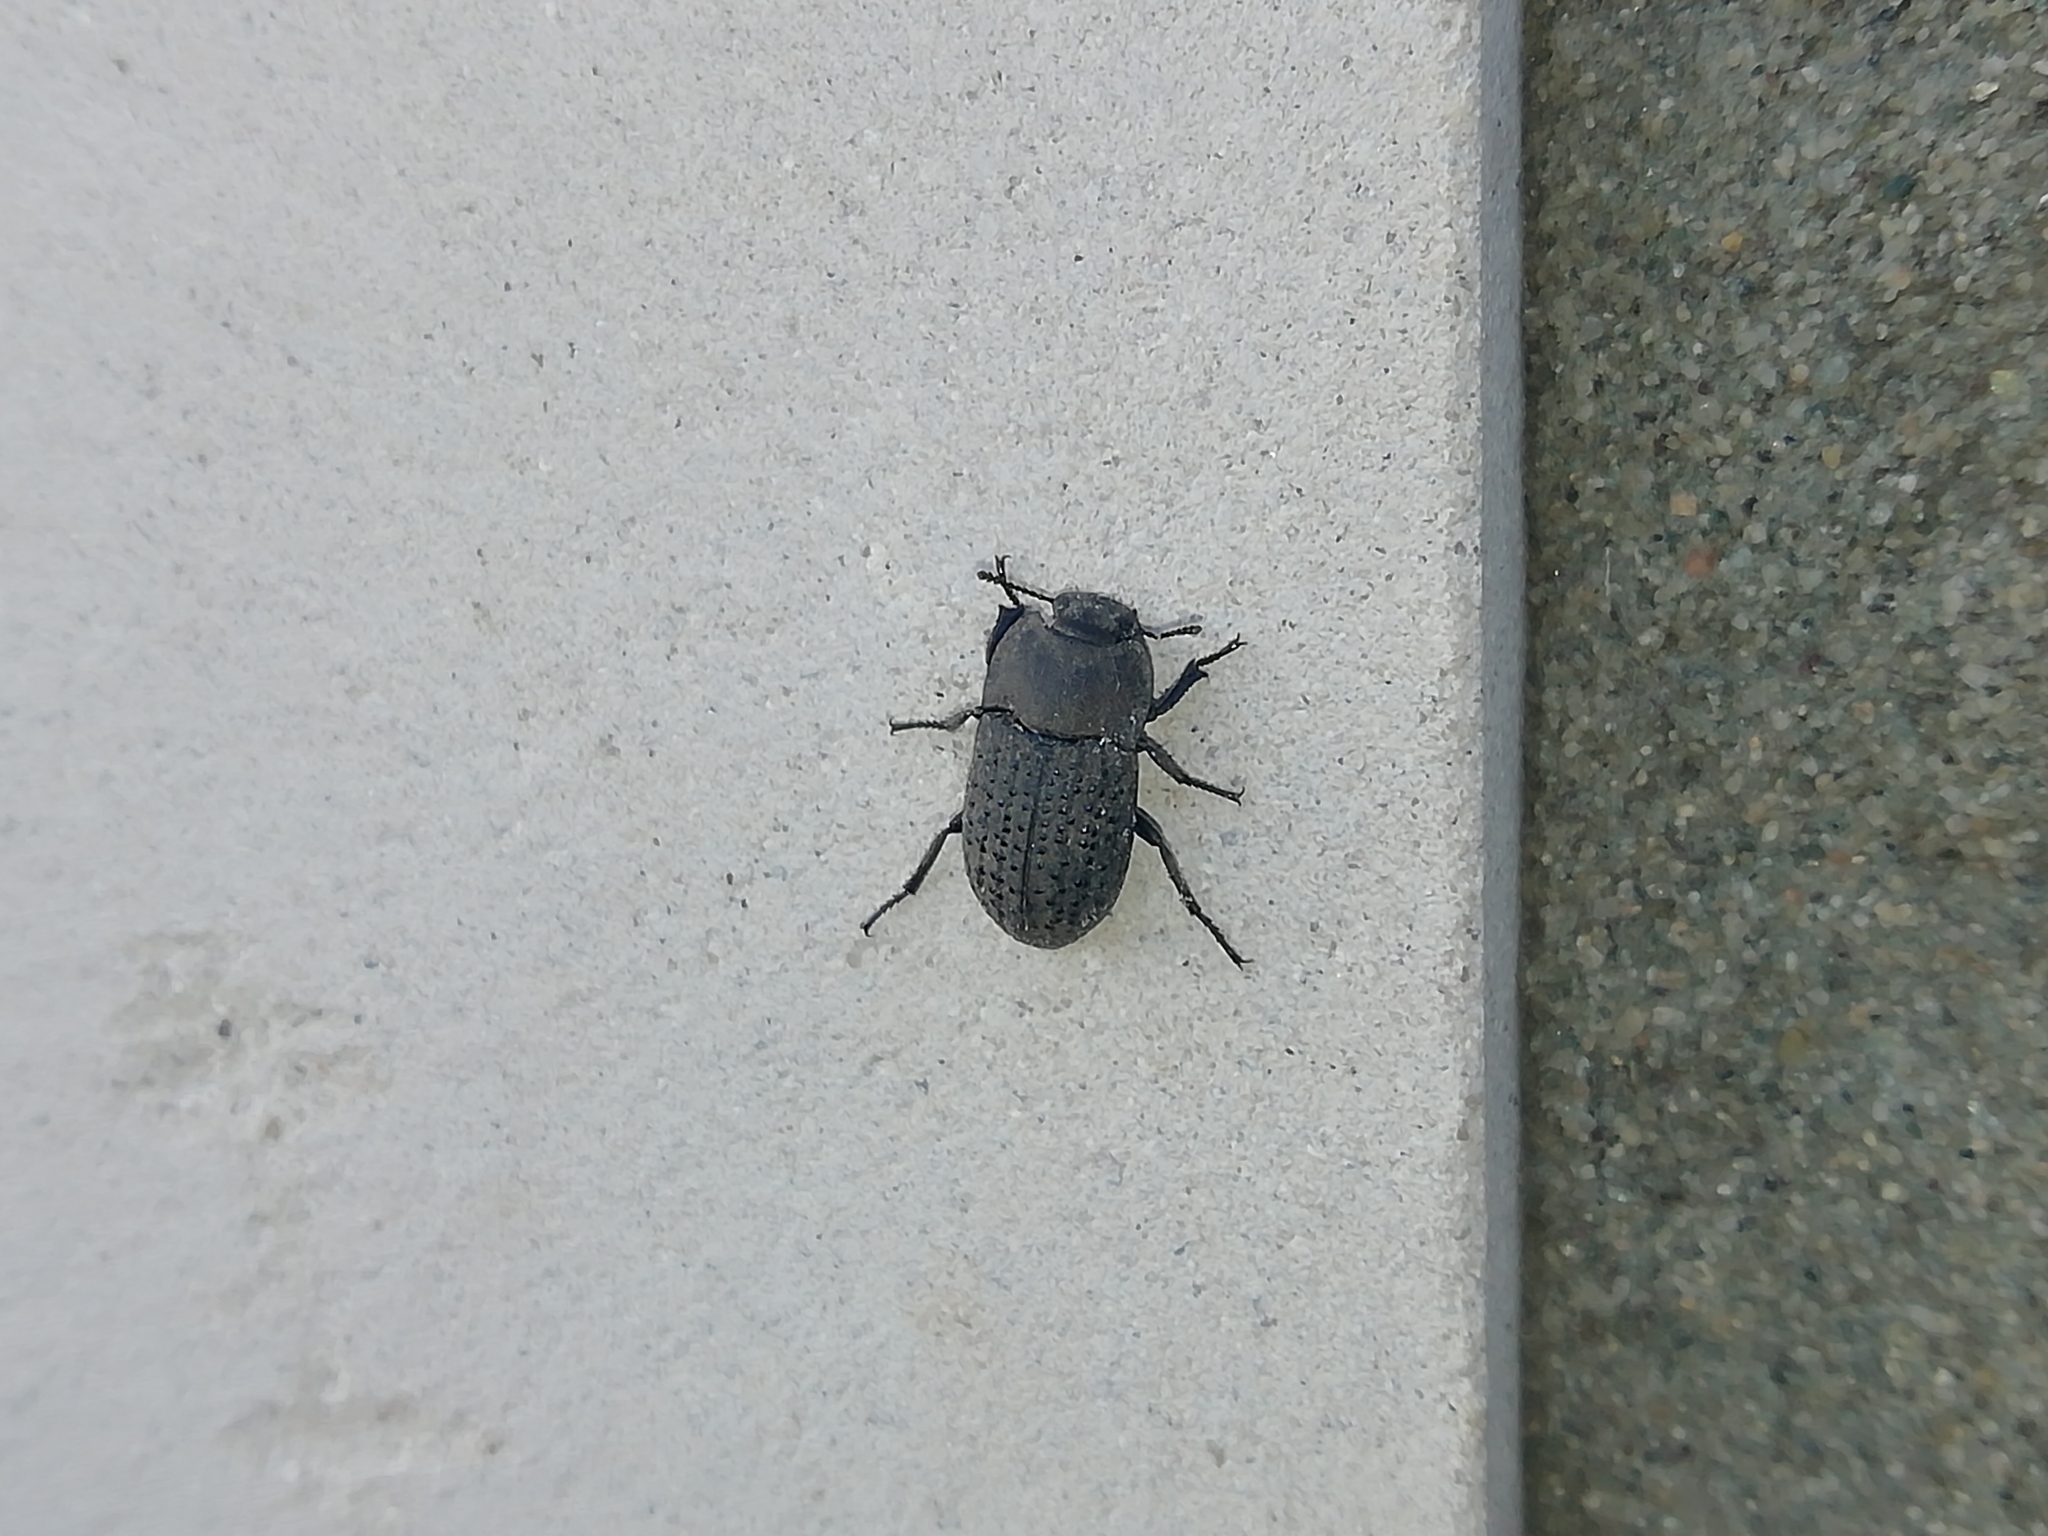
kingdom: Animalia
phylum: Arthropoda
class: Insecta
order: Coleoptera
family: Tenebrionidae
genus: Opatrum
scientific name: Opatrum sabulosum
